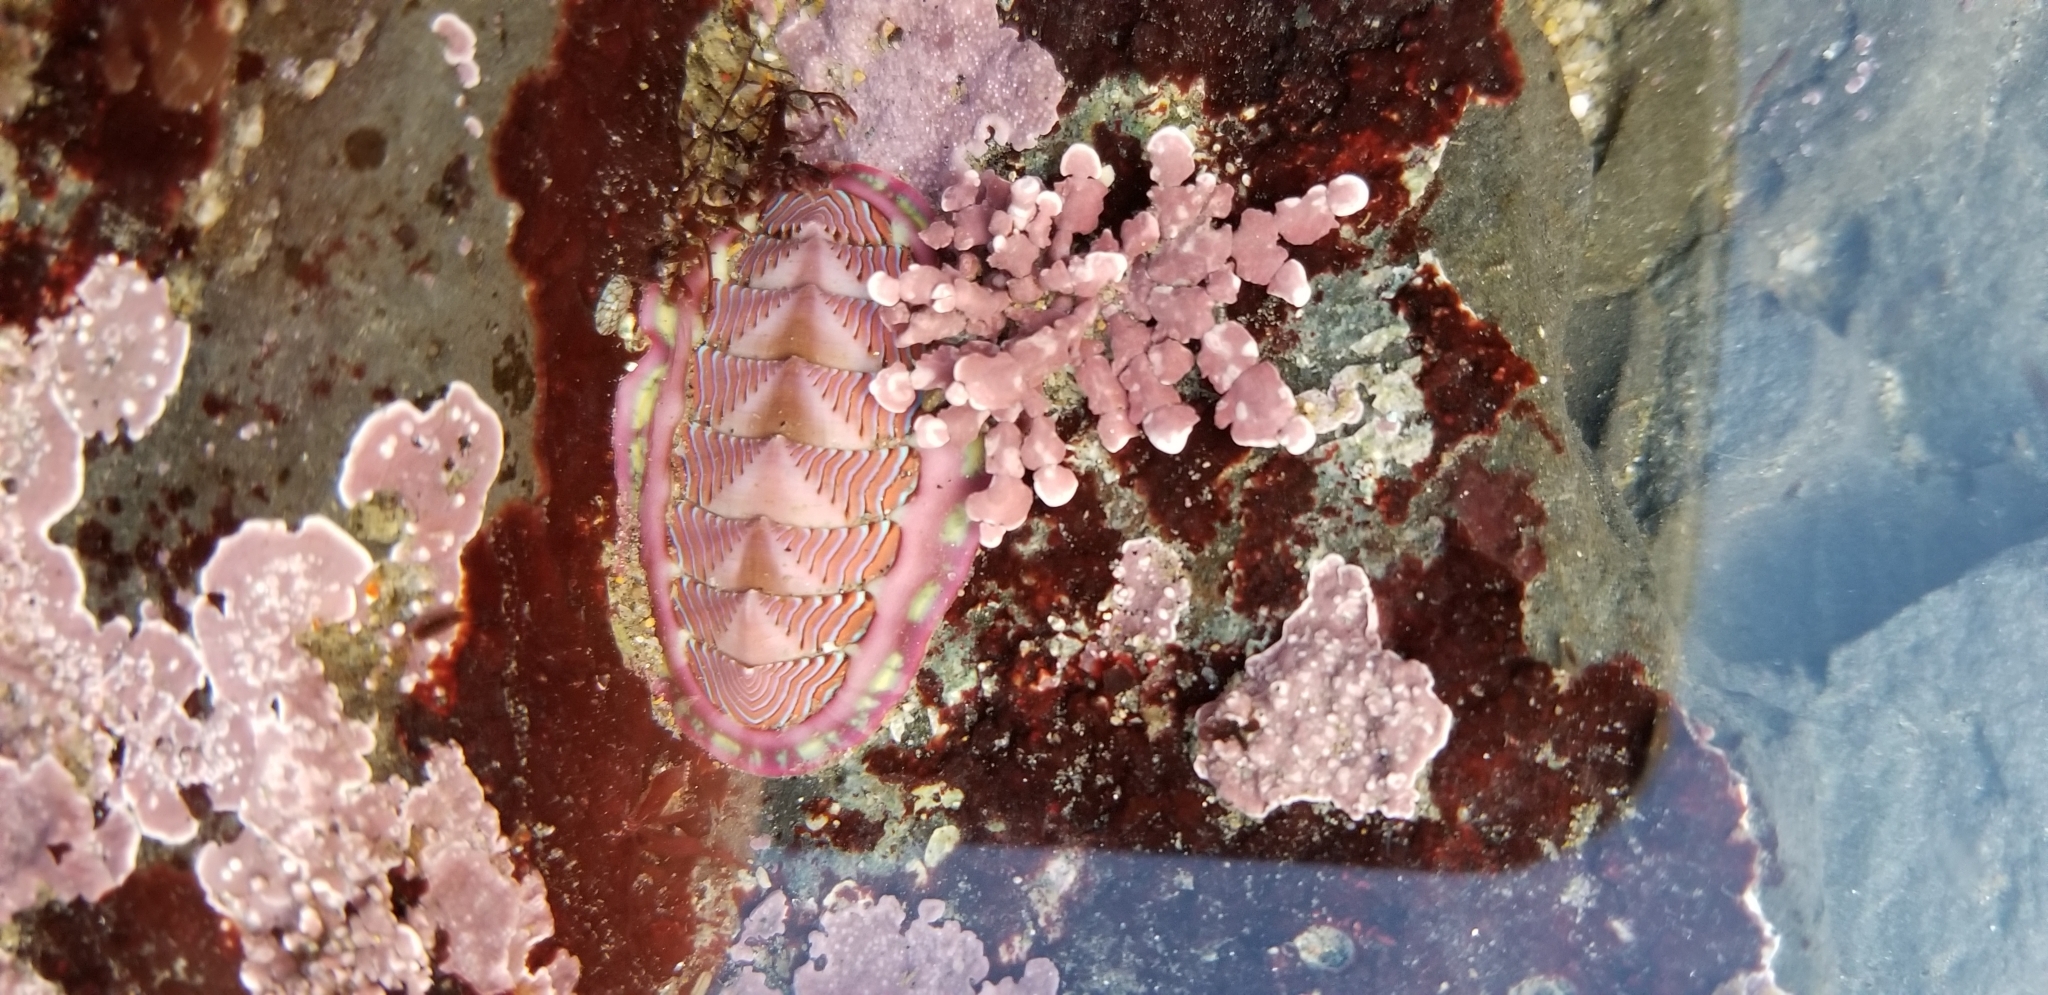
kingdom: Animalia
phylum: Mollusca
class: Polyplacophora
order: Chitonida
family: Tonicellidae
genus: Tonicella
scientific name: Tonicella lineata
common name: Lined chiton
